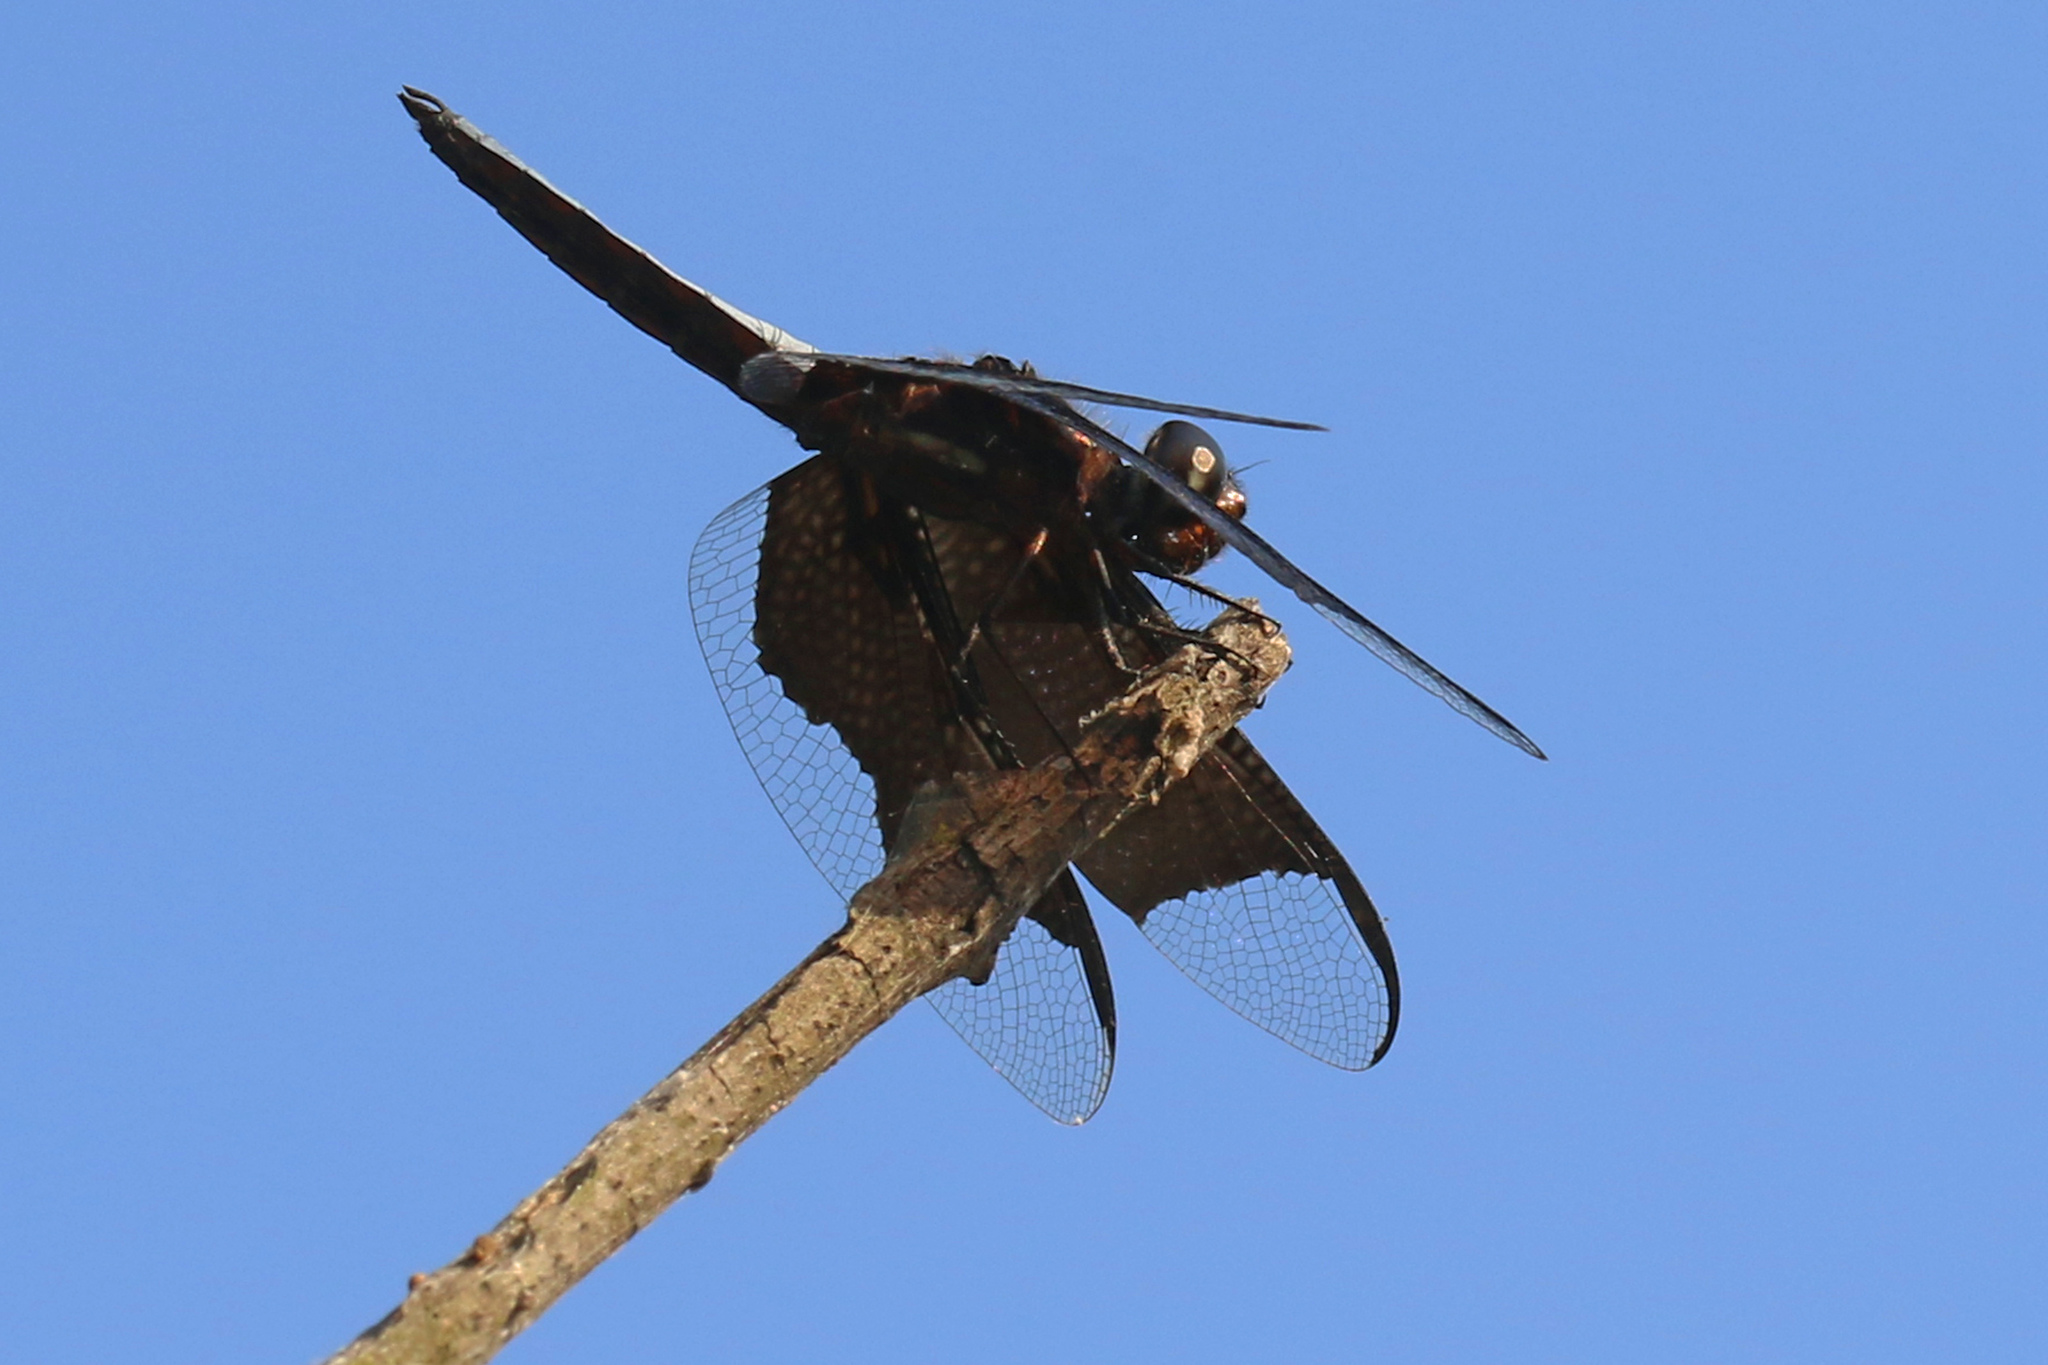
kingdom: Animalia
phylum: Arthropoda
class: Insecta
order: Odonata
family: Libellulidae
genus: Palpopleura
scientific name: Palpopleura lucia
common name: Lucia widow
